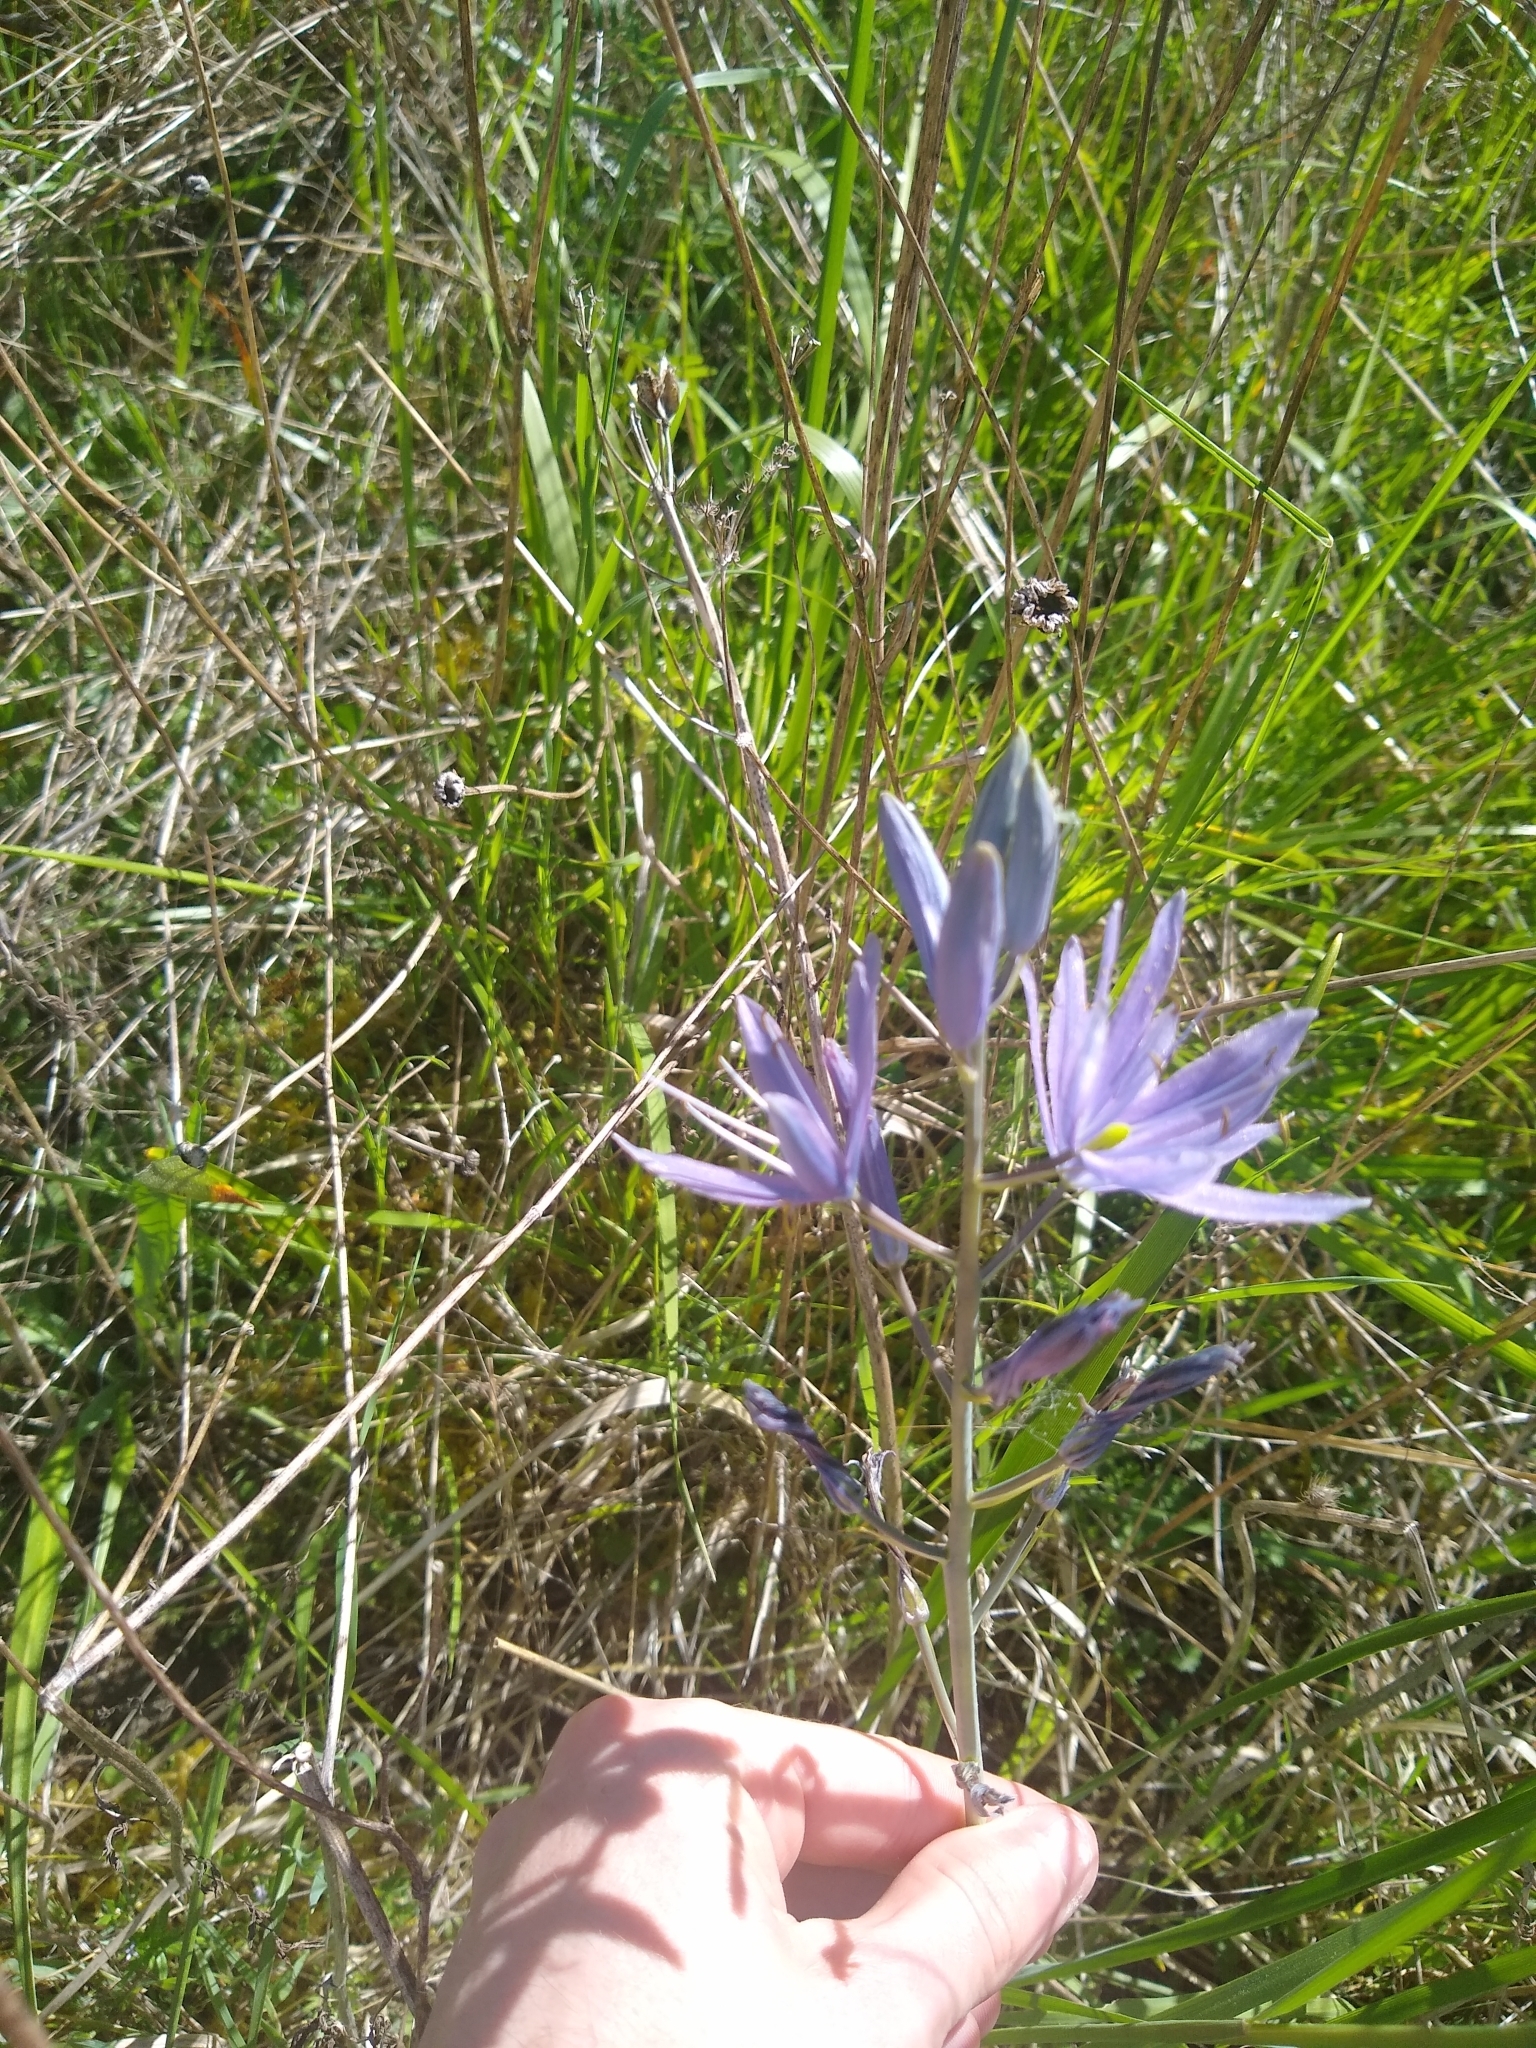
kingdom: Plantae
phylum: Tracheophyta
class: Liliopsida
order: Asparagales
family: Asparagaceae
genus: Camassia
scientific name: Camassia leichtlinii
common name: Leichtlin's camas
